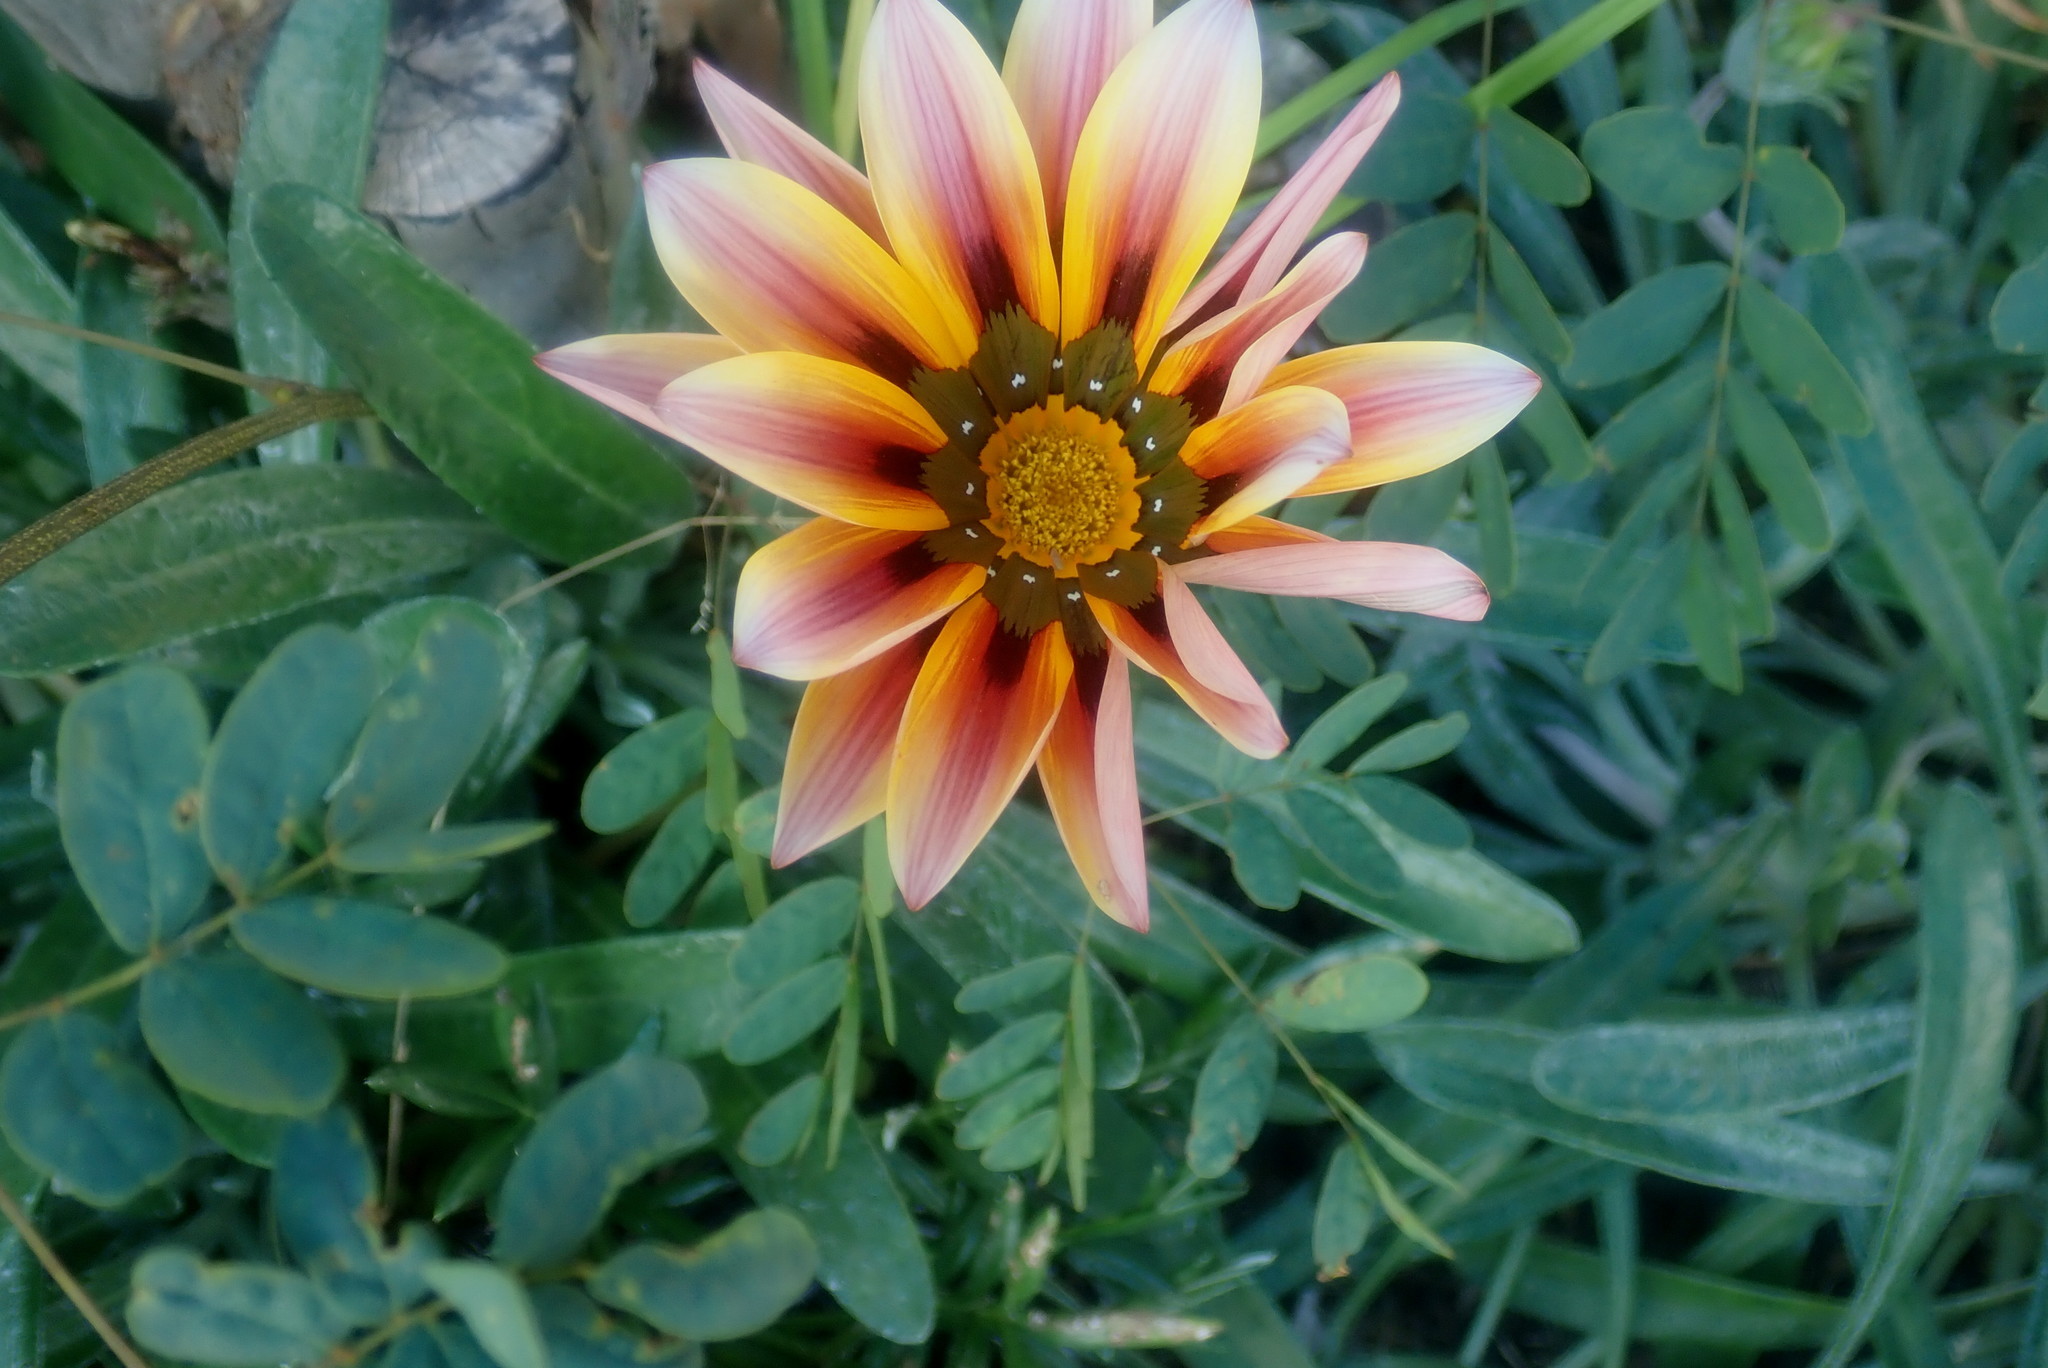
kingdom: Plantae
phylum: Tracheophyta
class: Magnoliopsida
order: Asterales
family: Asteraceae
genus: Gazania
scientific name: Gazania splendens
